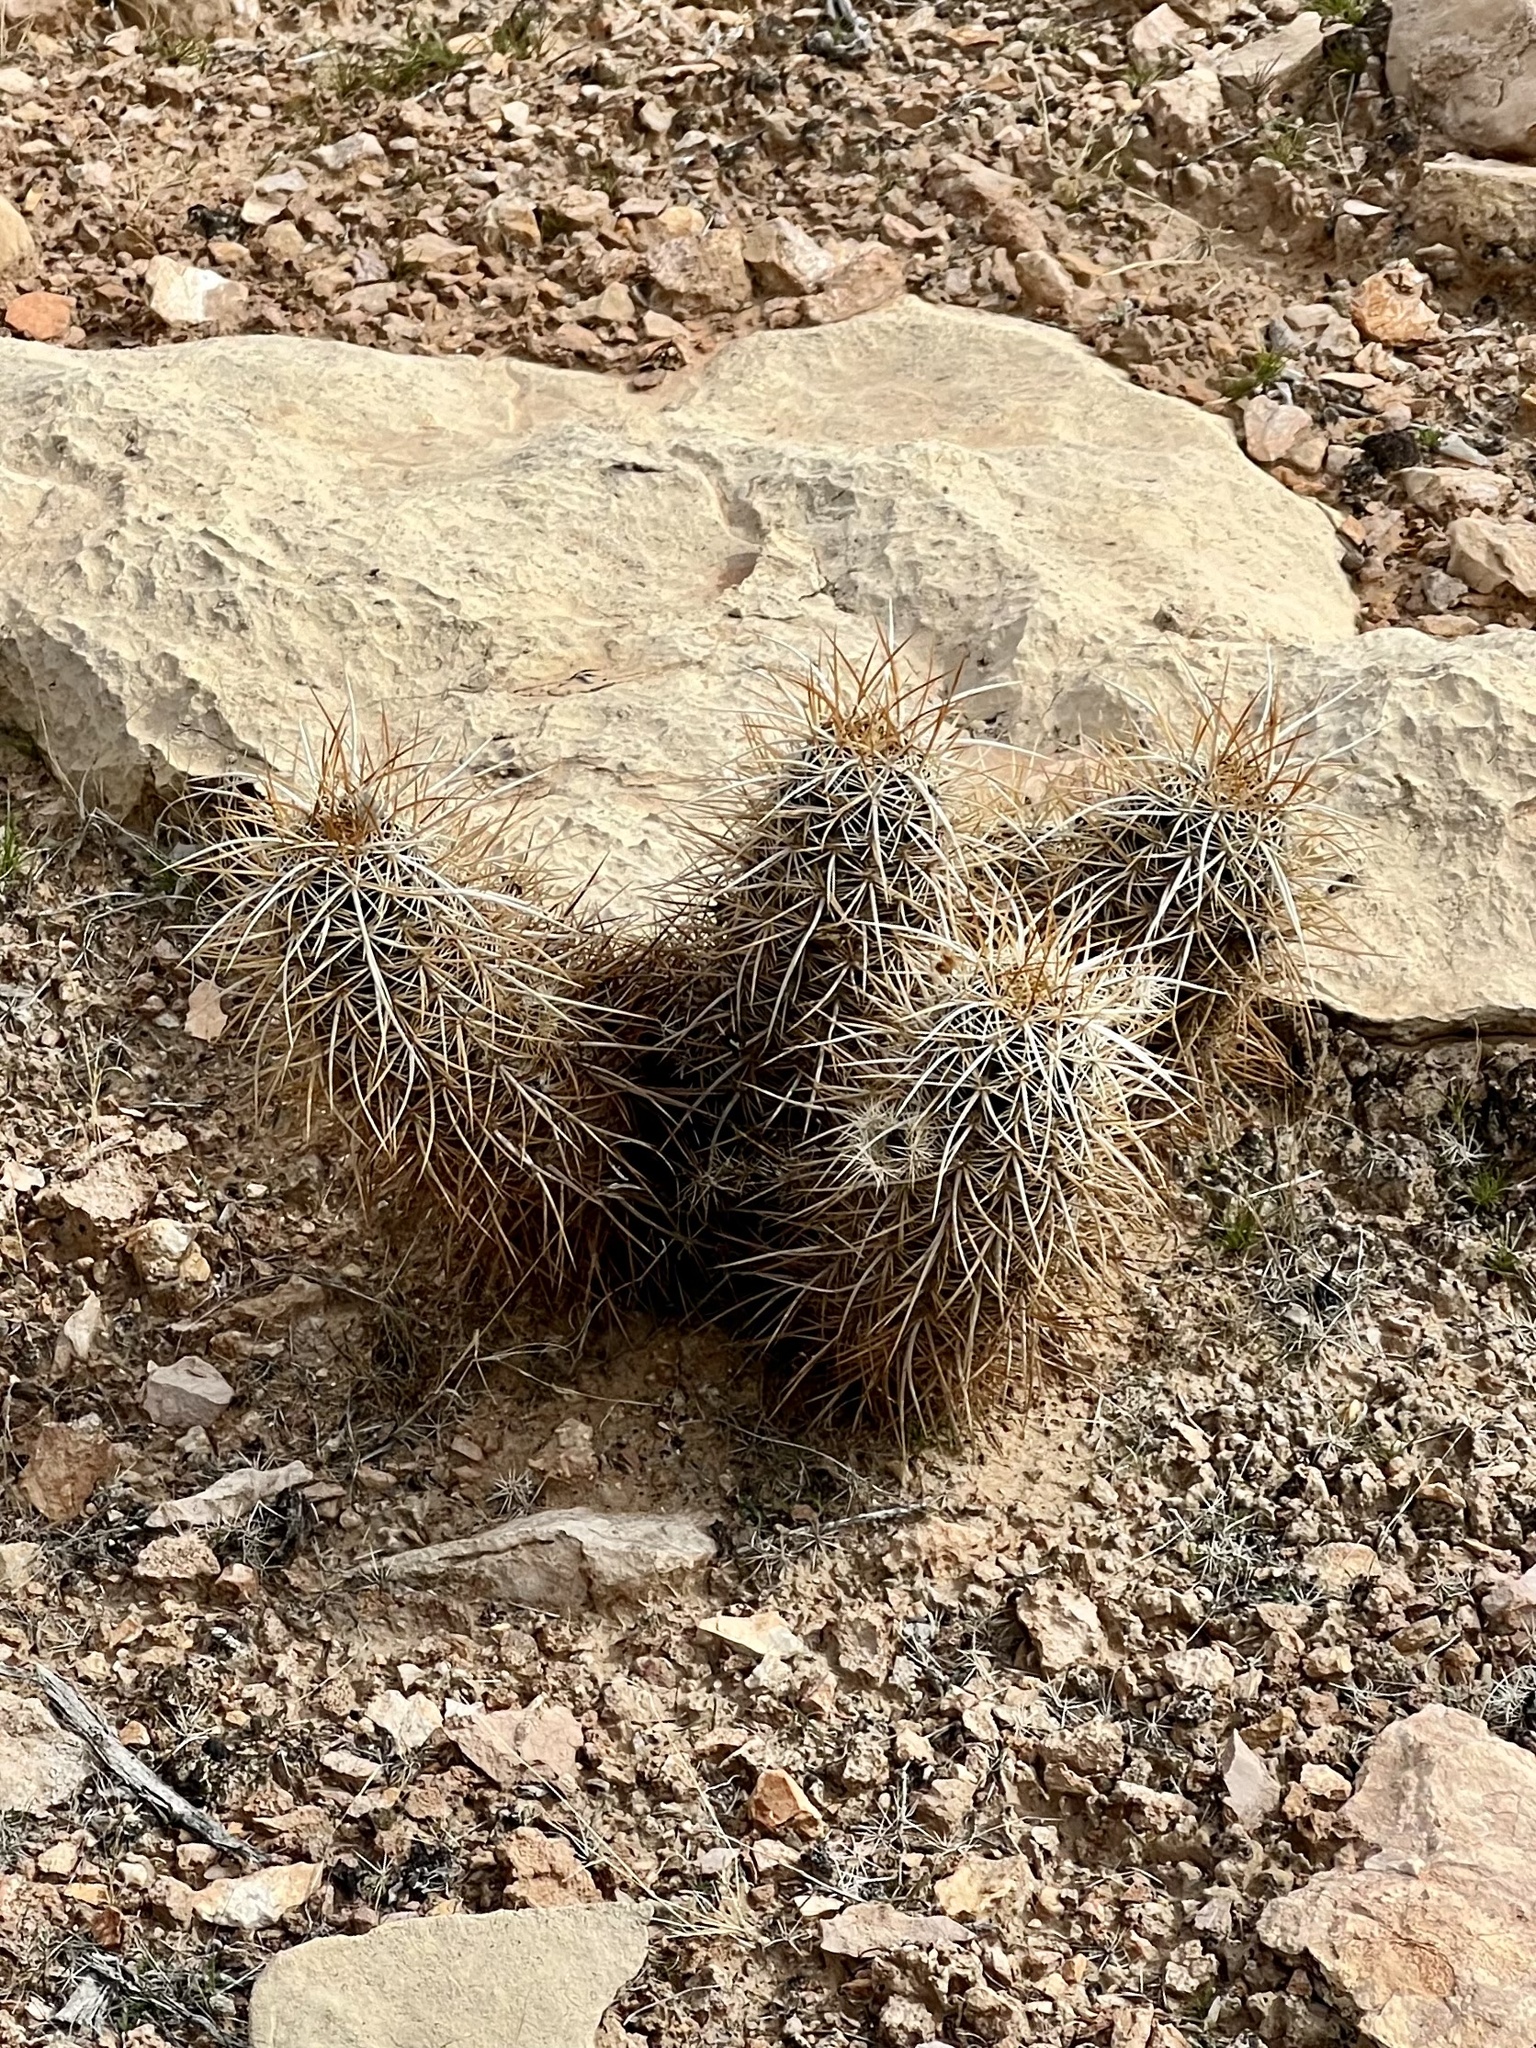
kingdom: Plantae
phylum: Tracheophyta
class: Magnoliopsida
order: Caryophyllales
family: Cactaceae
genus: Echinocereus
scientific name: Echinocereus engelmannii
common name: Engelmann's hedgehog cactus
